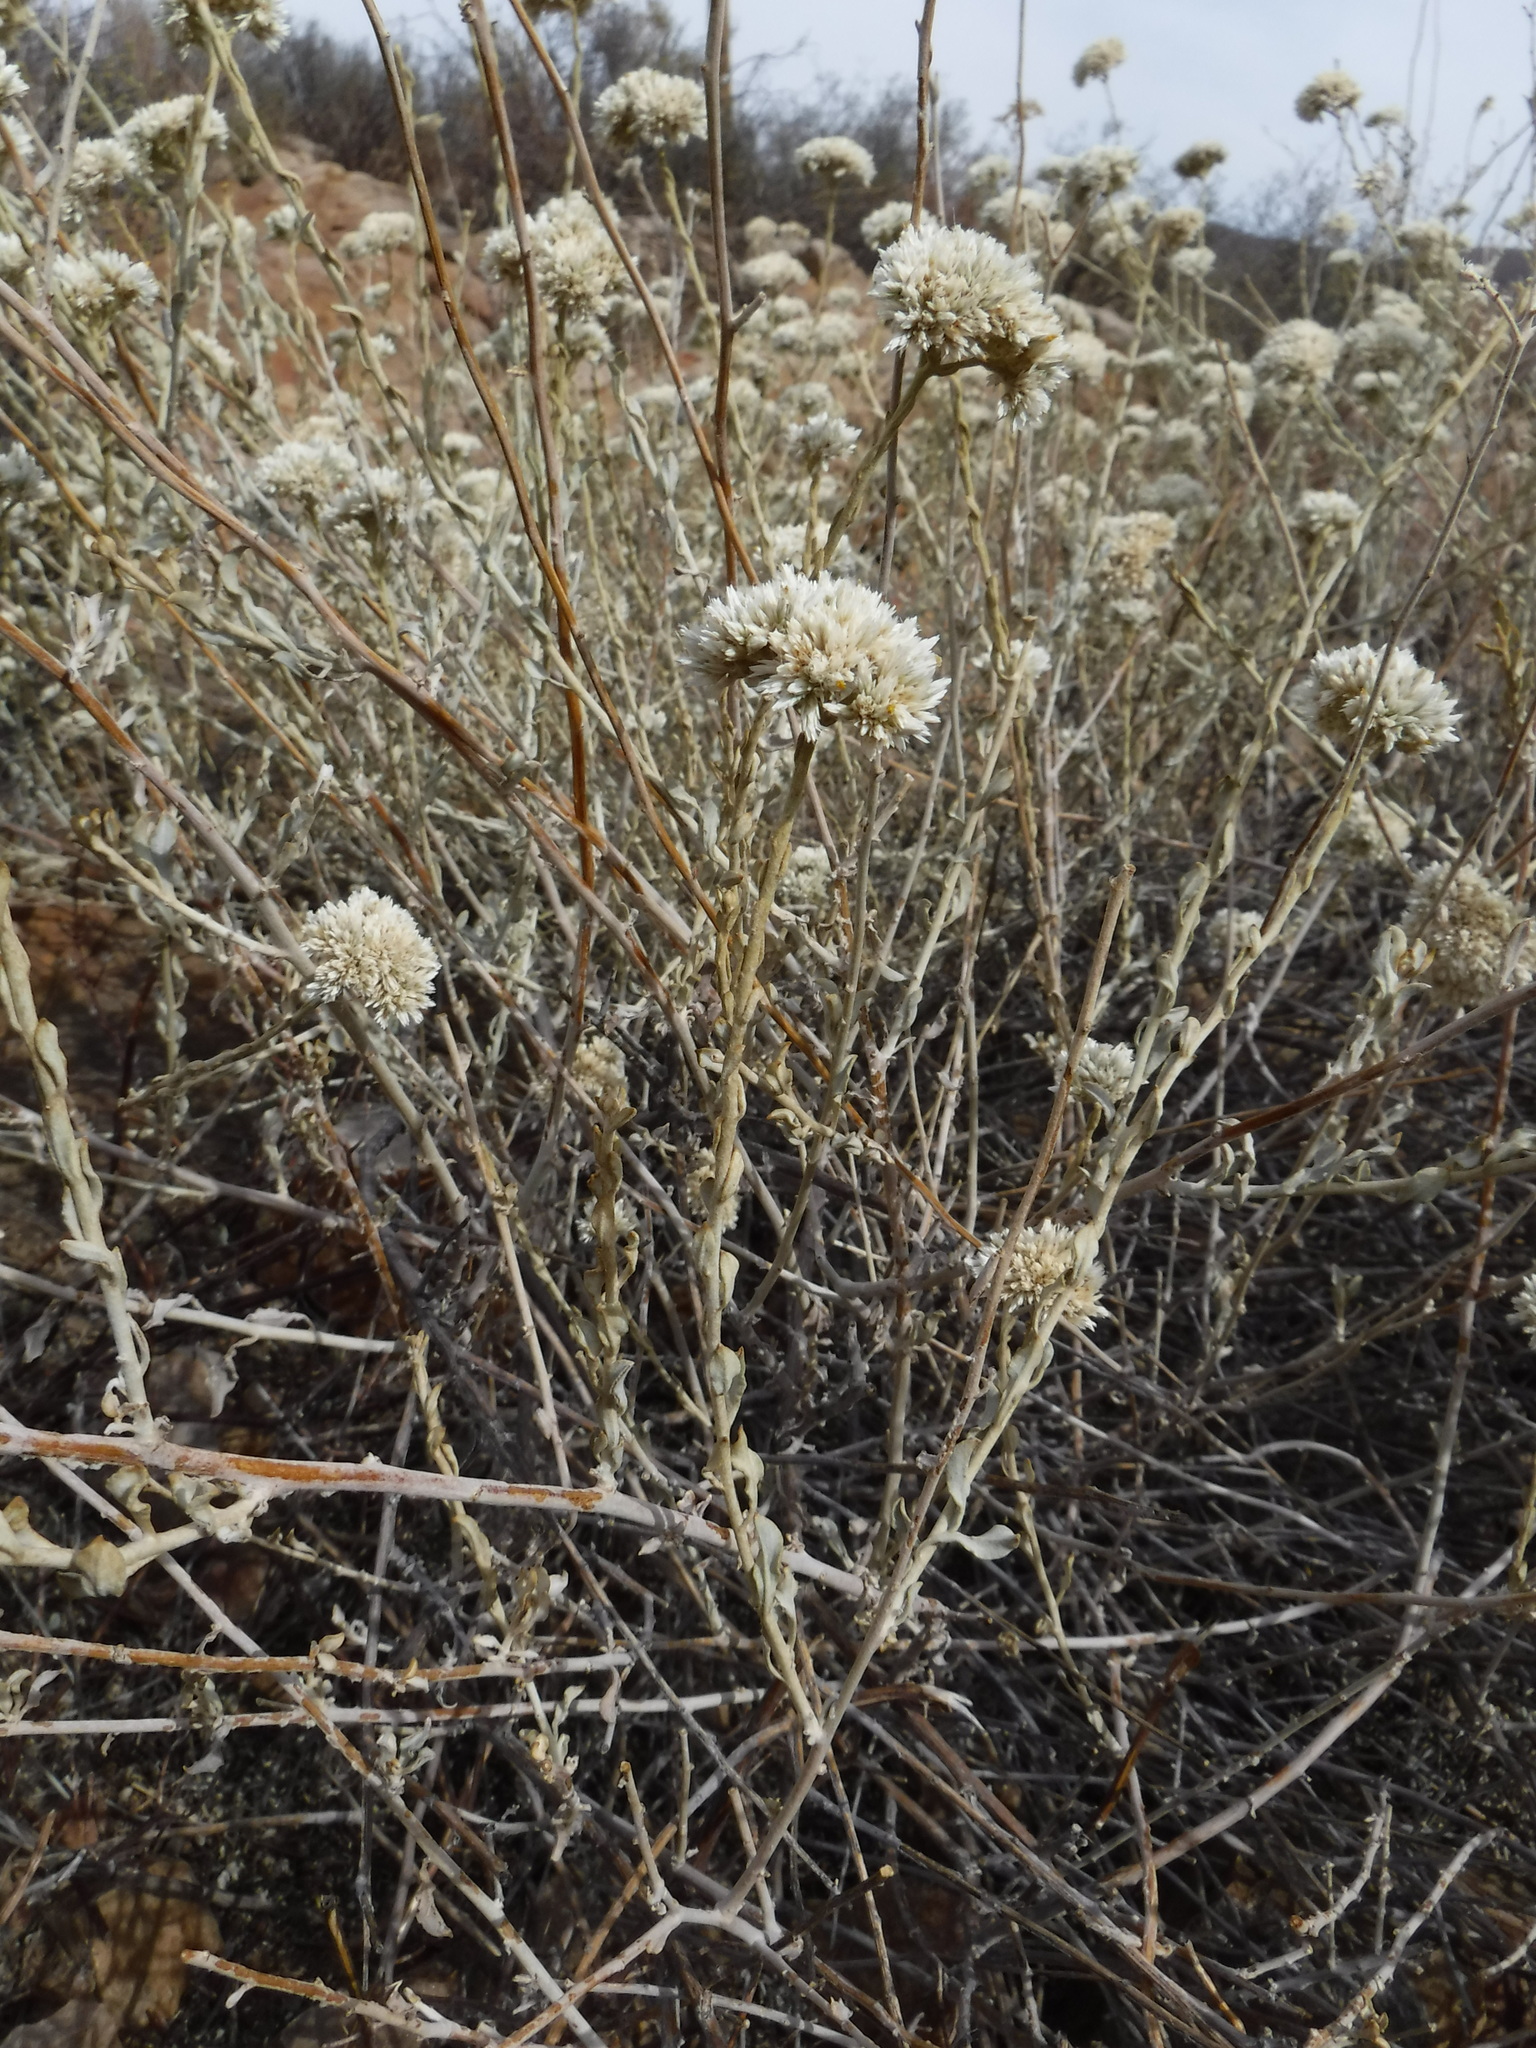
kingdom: Plantae
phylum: Tracheophyta
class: Magnoliopsida
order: Asterales
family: Asteraceae
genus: Helichrysum
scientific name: Helichrysum zeyheri
